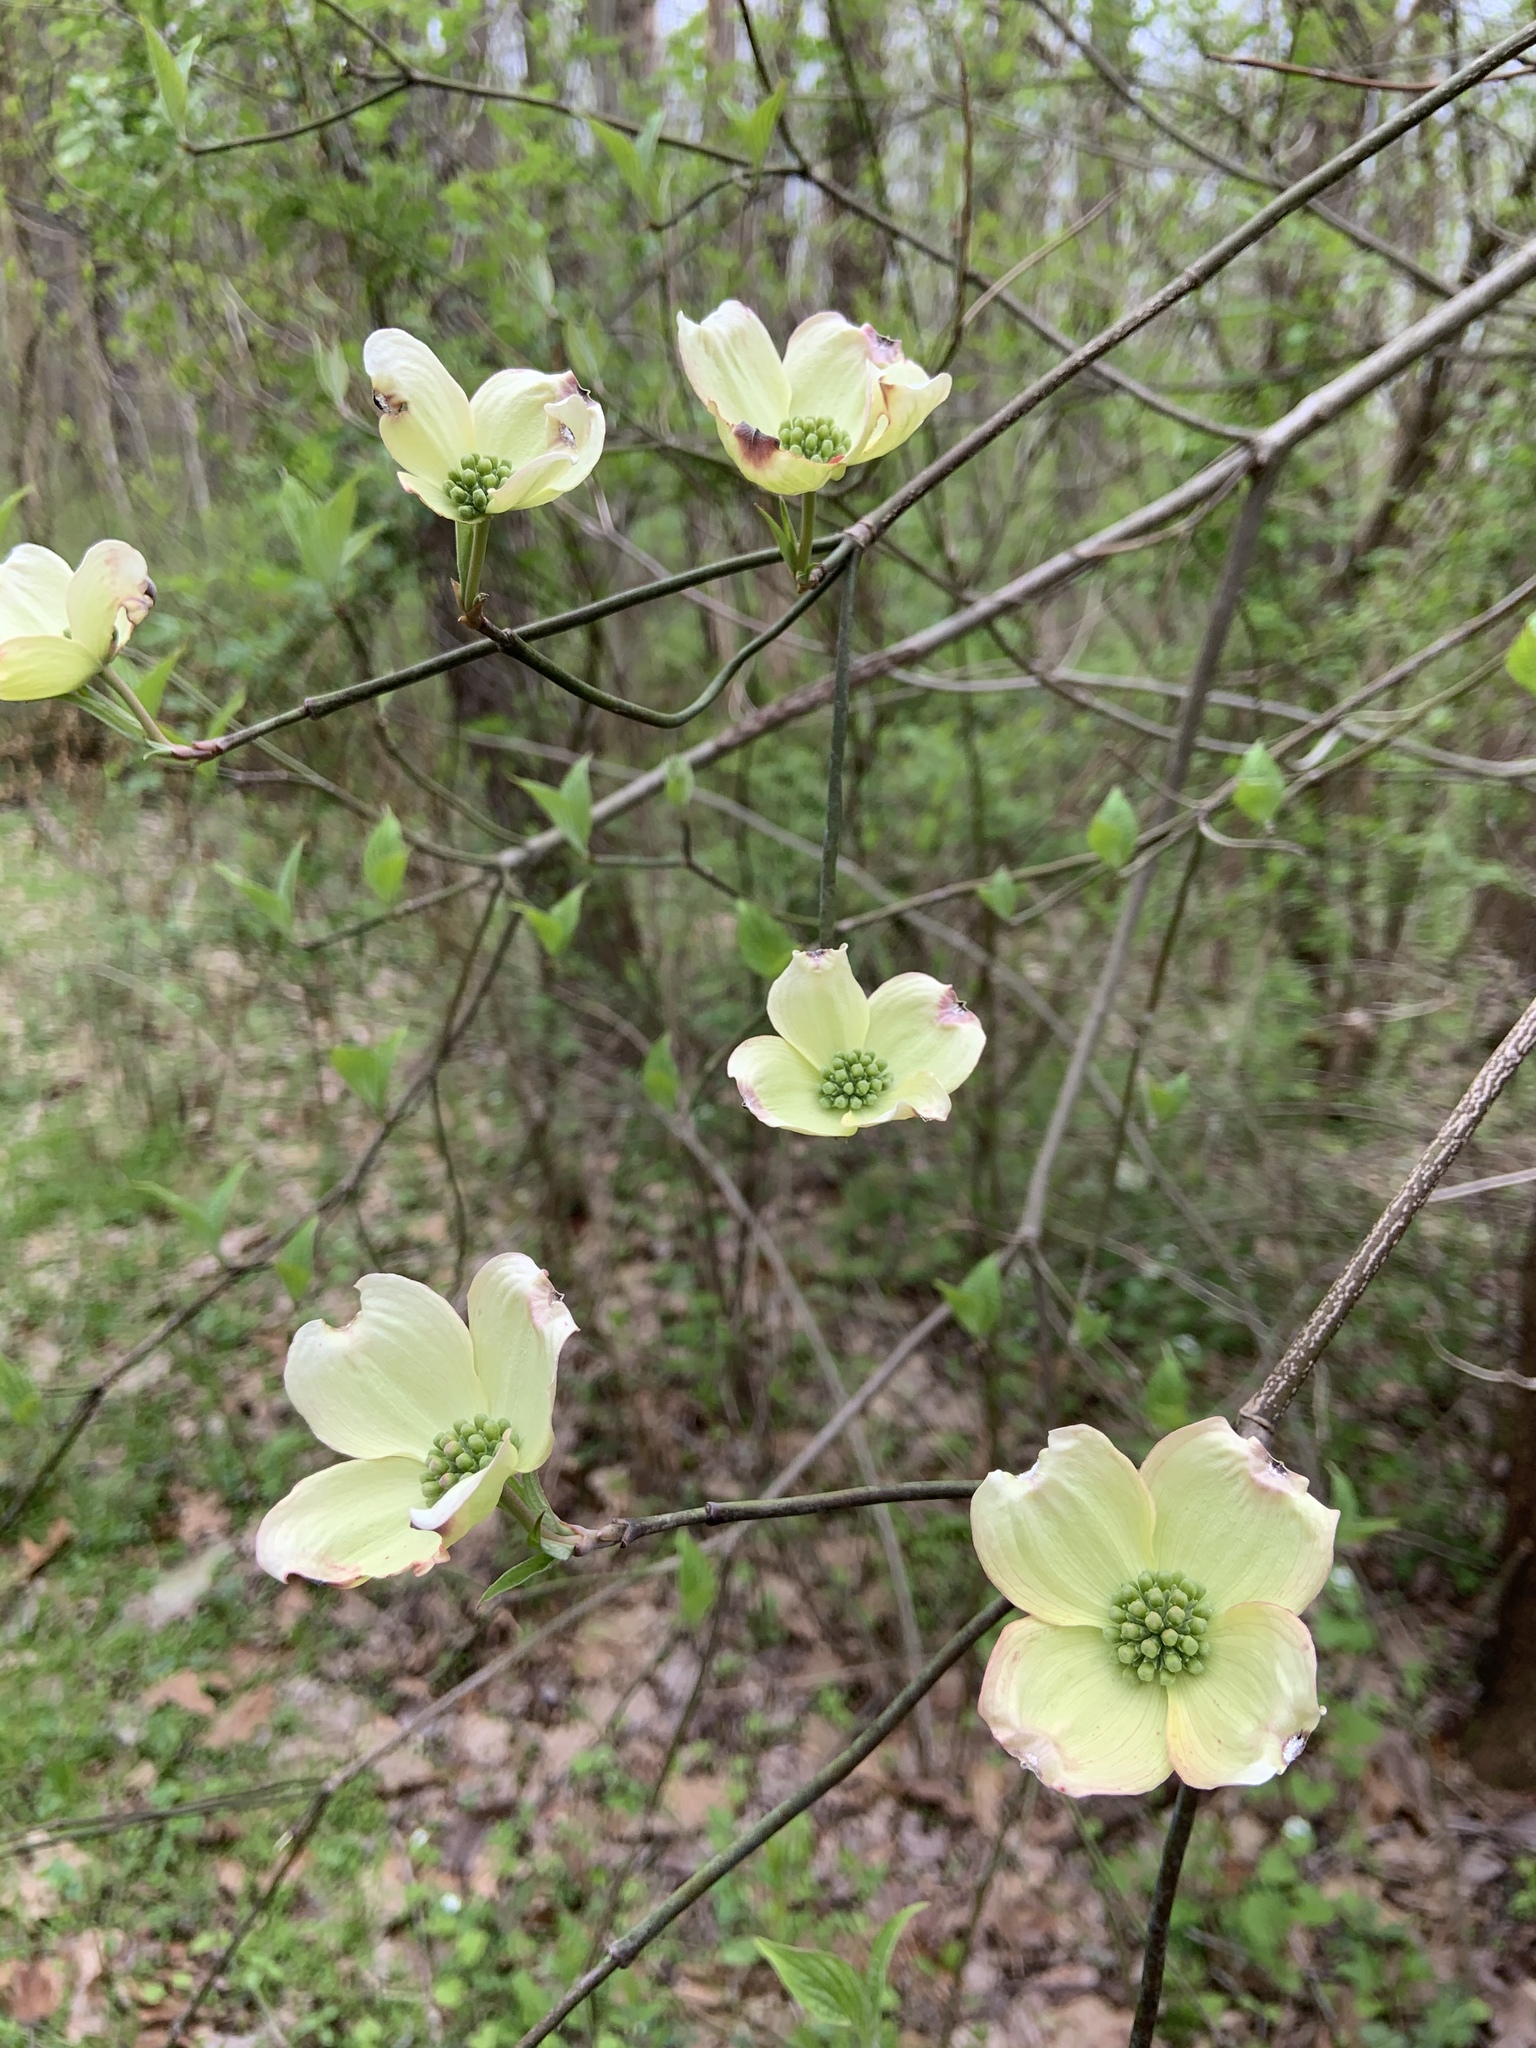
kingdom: Plantae
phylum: Tracheophyta
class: Magnoliopsida
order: Cornales
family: Cornaceae
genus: Cornus
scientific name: Cornus florida
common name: Flowering dogwood
